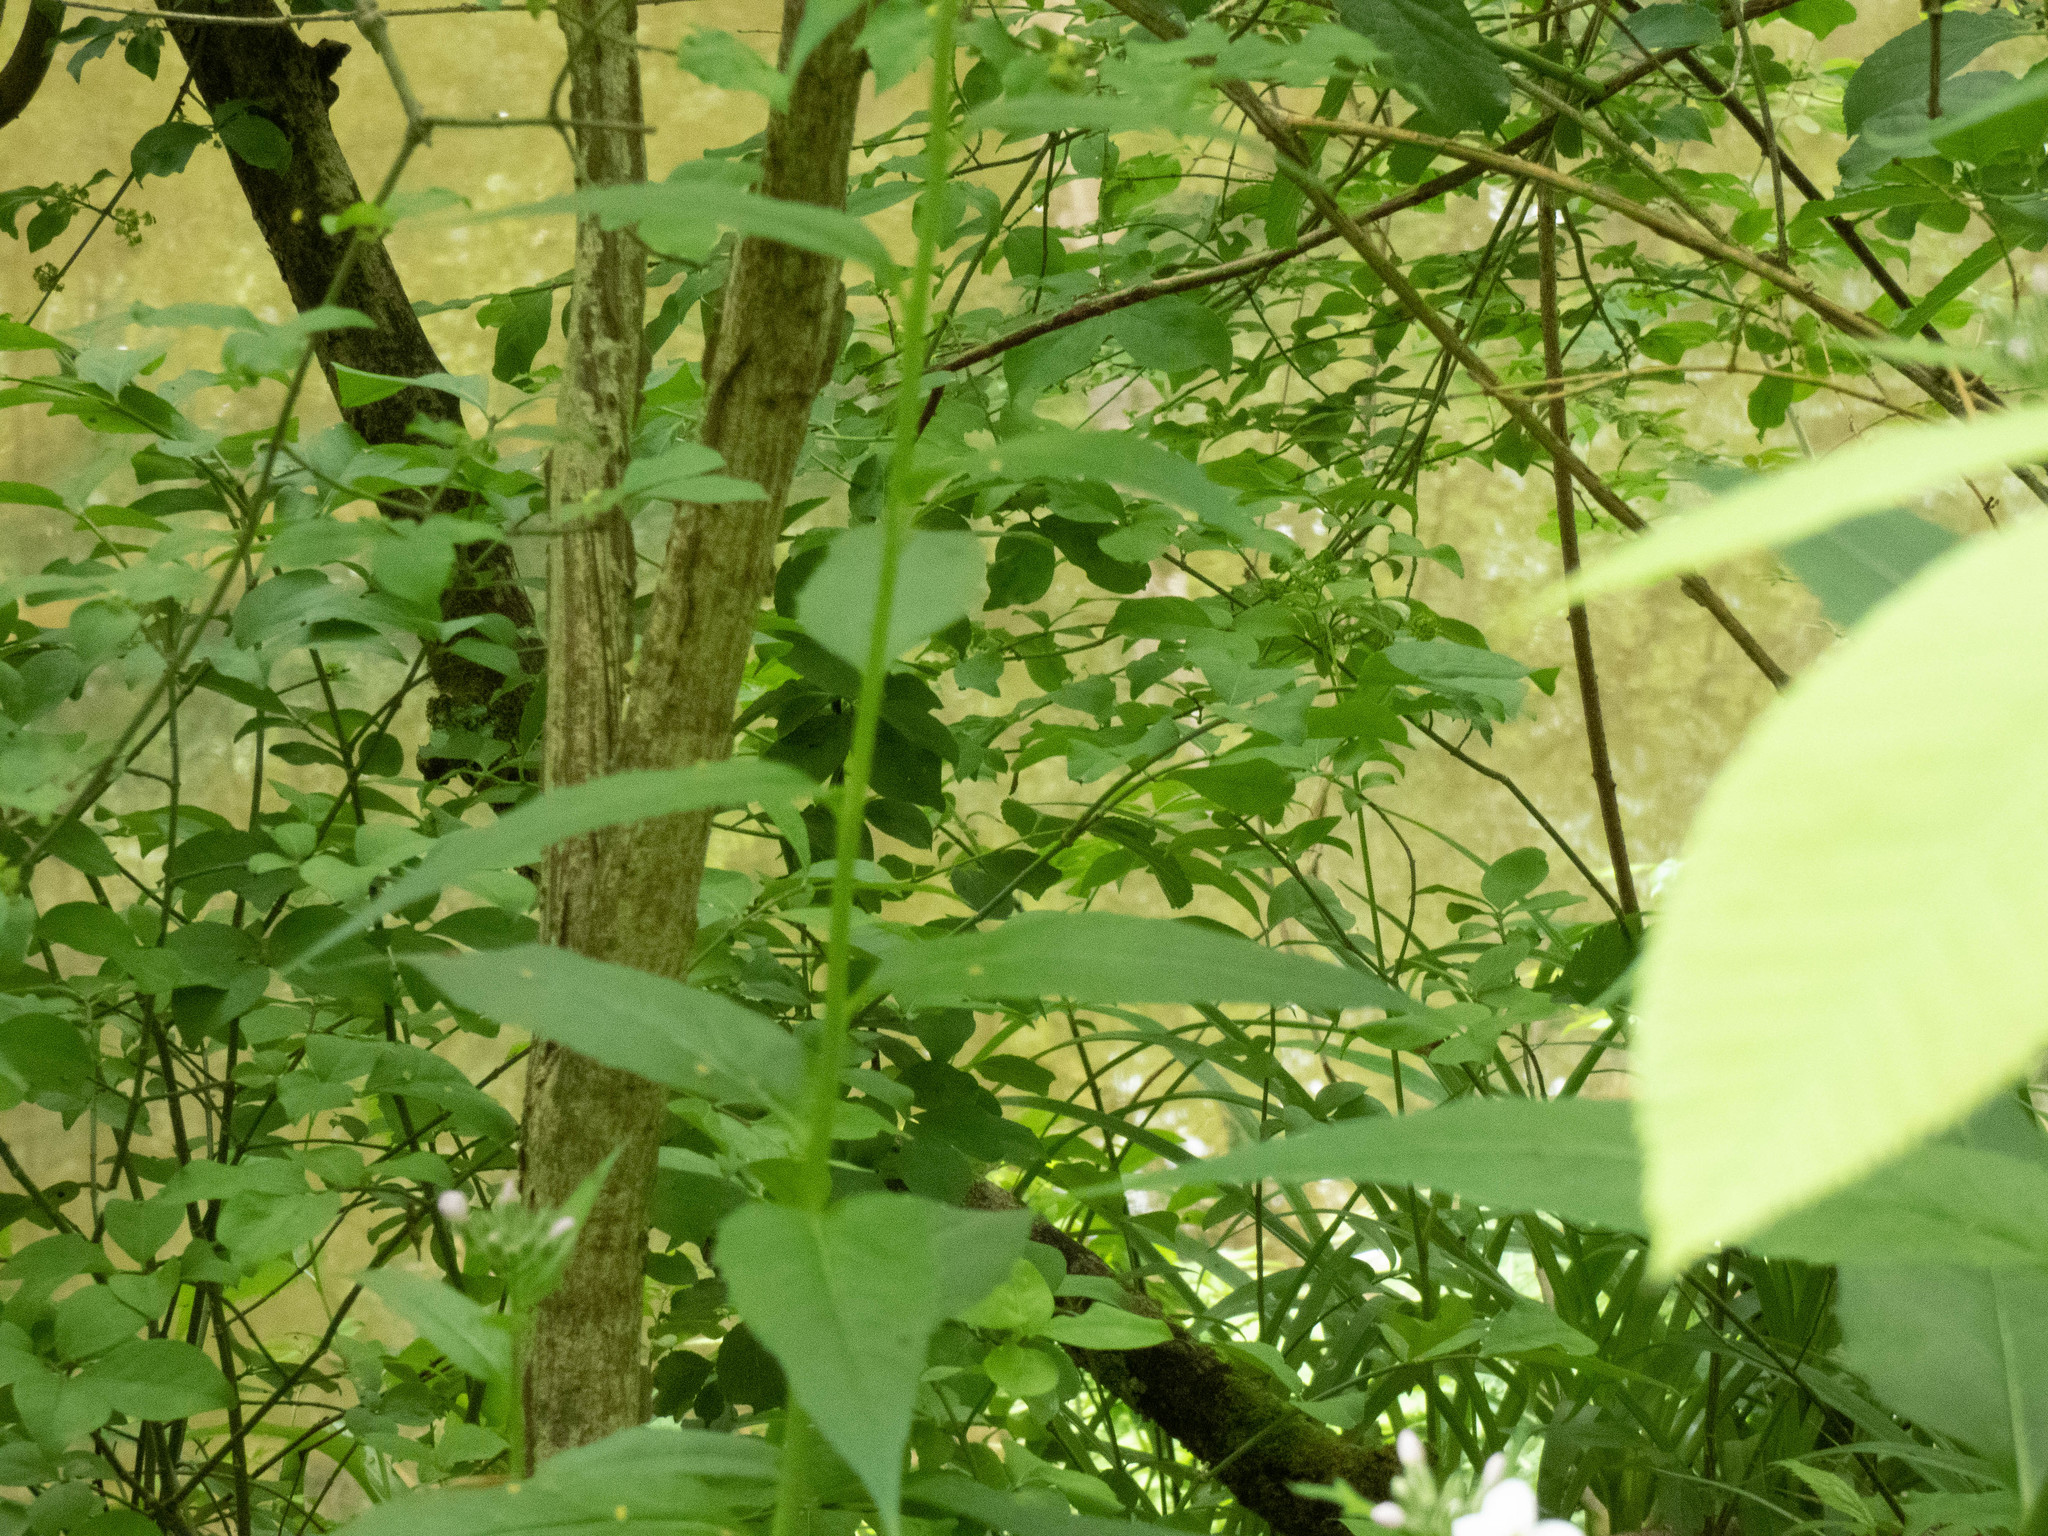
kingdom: Plantae
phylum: Tracheophyta
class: Magnoliopsida
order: Brassicales
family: Brassicaceae
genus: Hesperis
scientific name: Hesperis matronalis
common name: Dame's-violet
